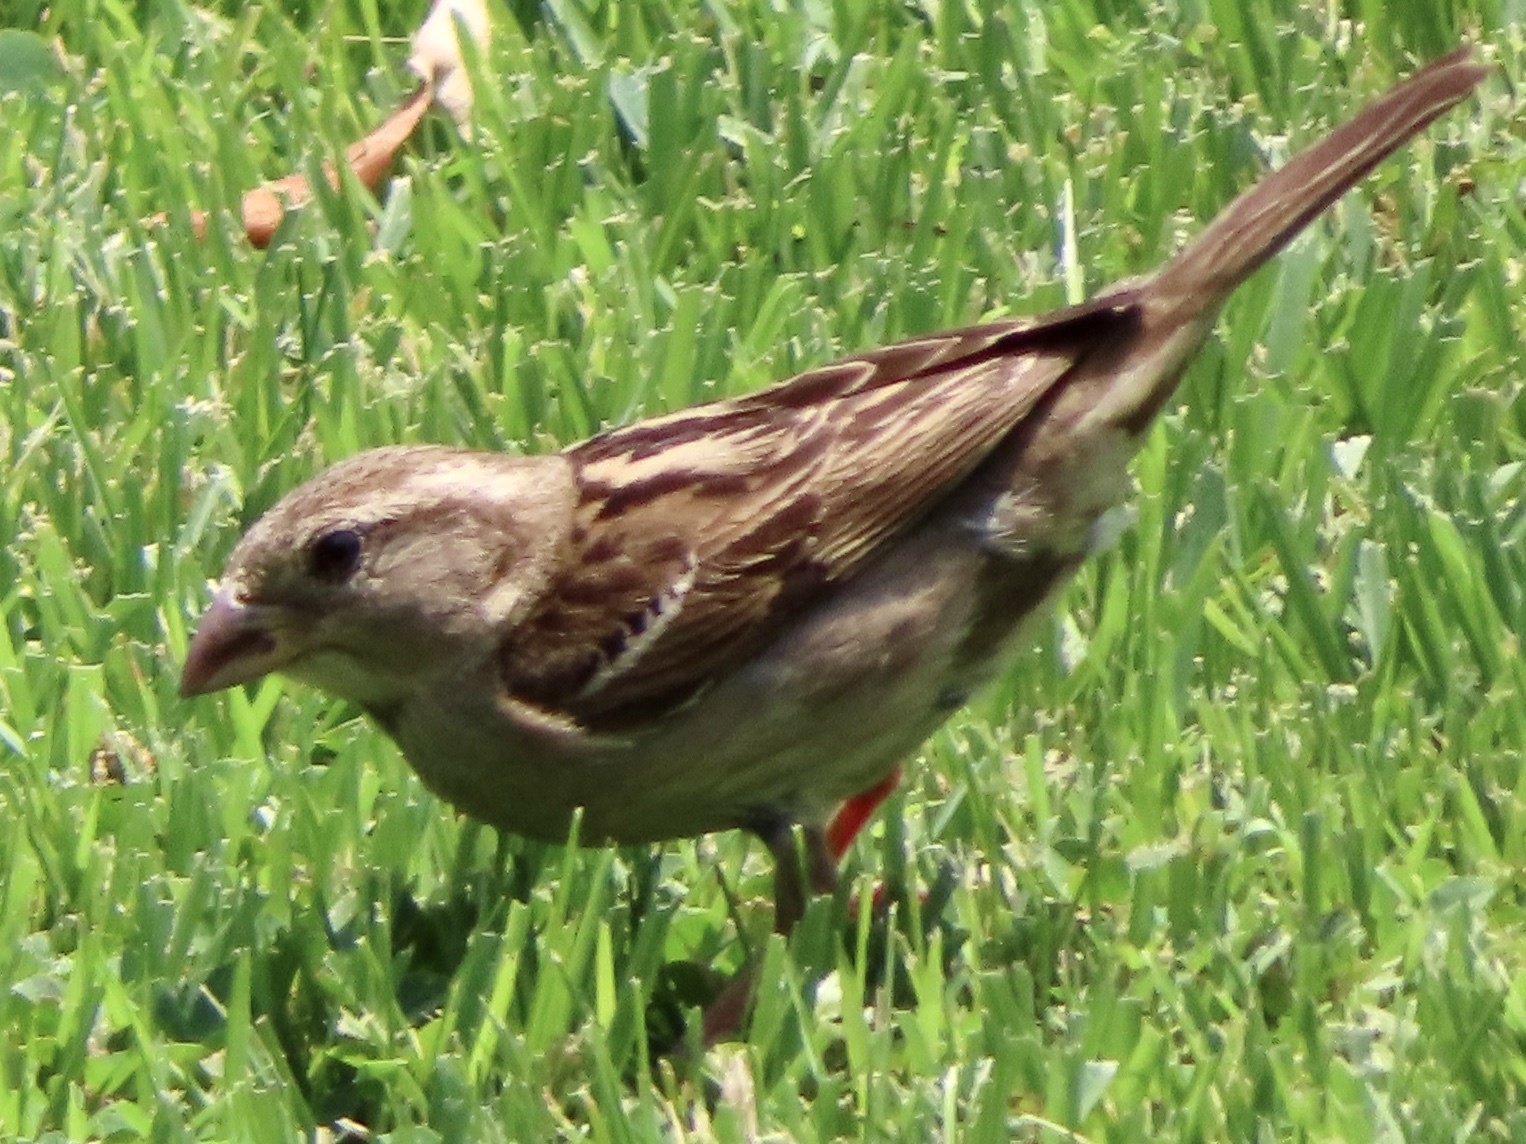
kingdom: Animalia
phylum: Chordata
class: Aves
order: Passeriformes
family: Passeridae
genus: Passer
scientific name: Passer domesticus
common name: House sparrow
